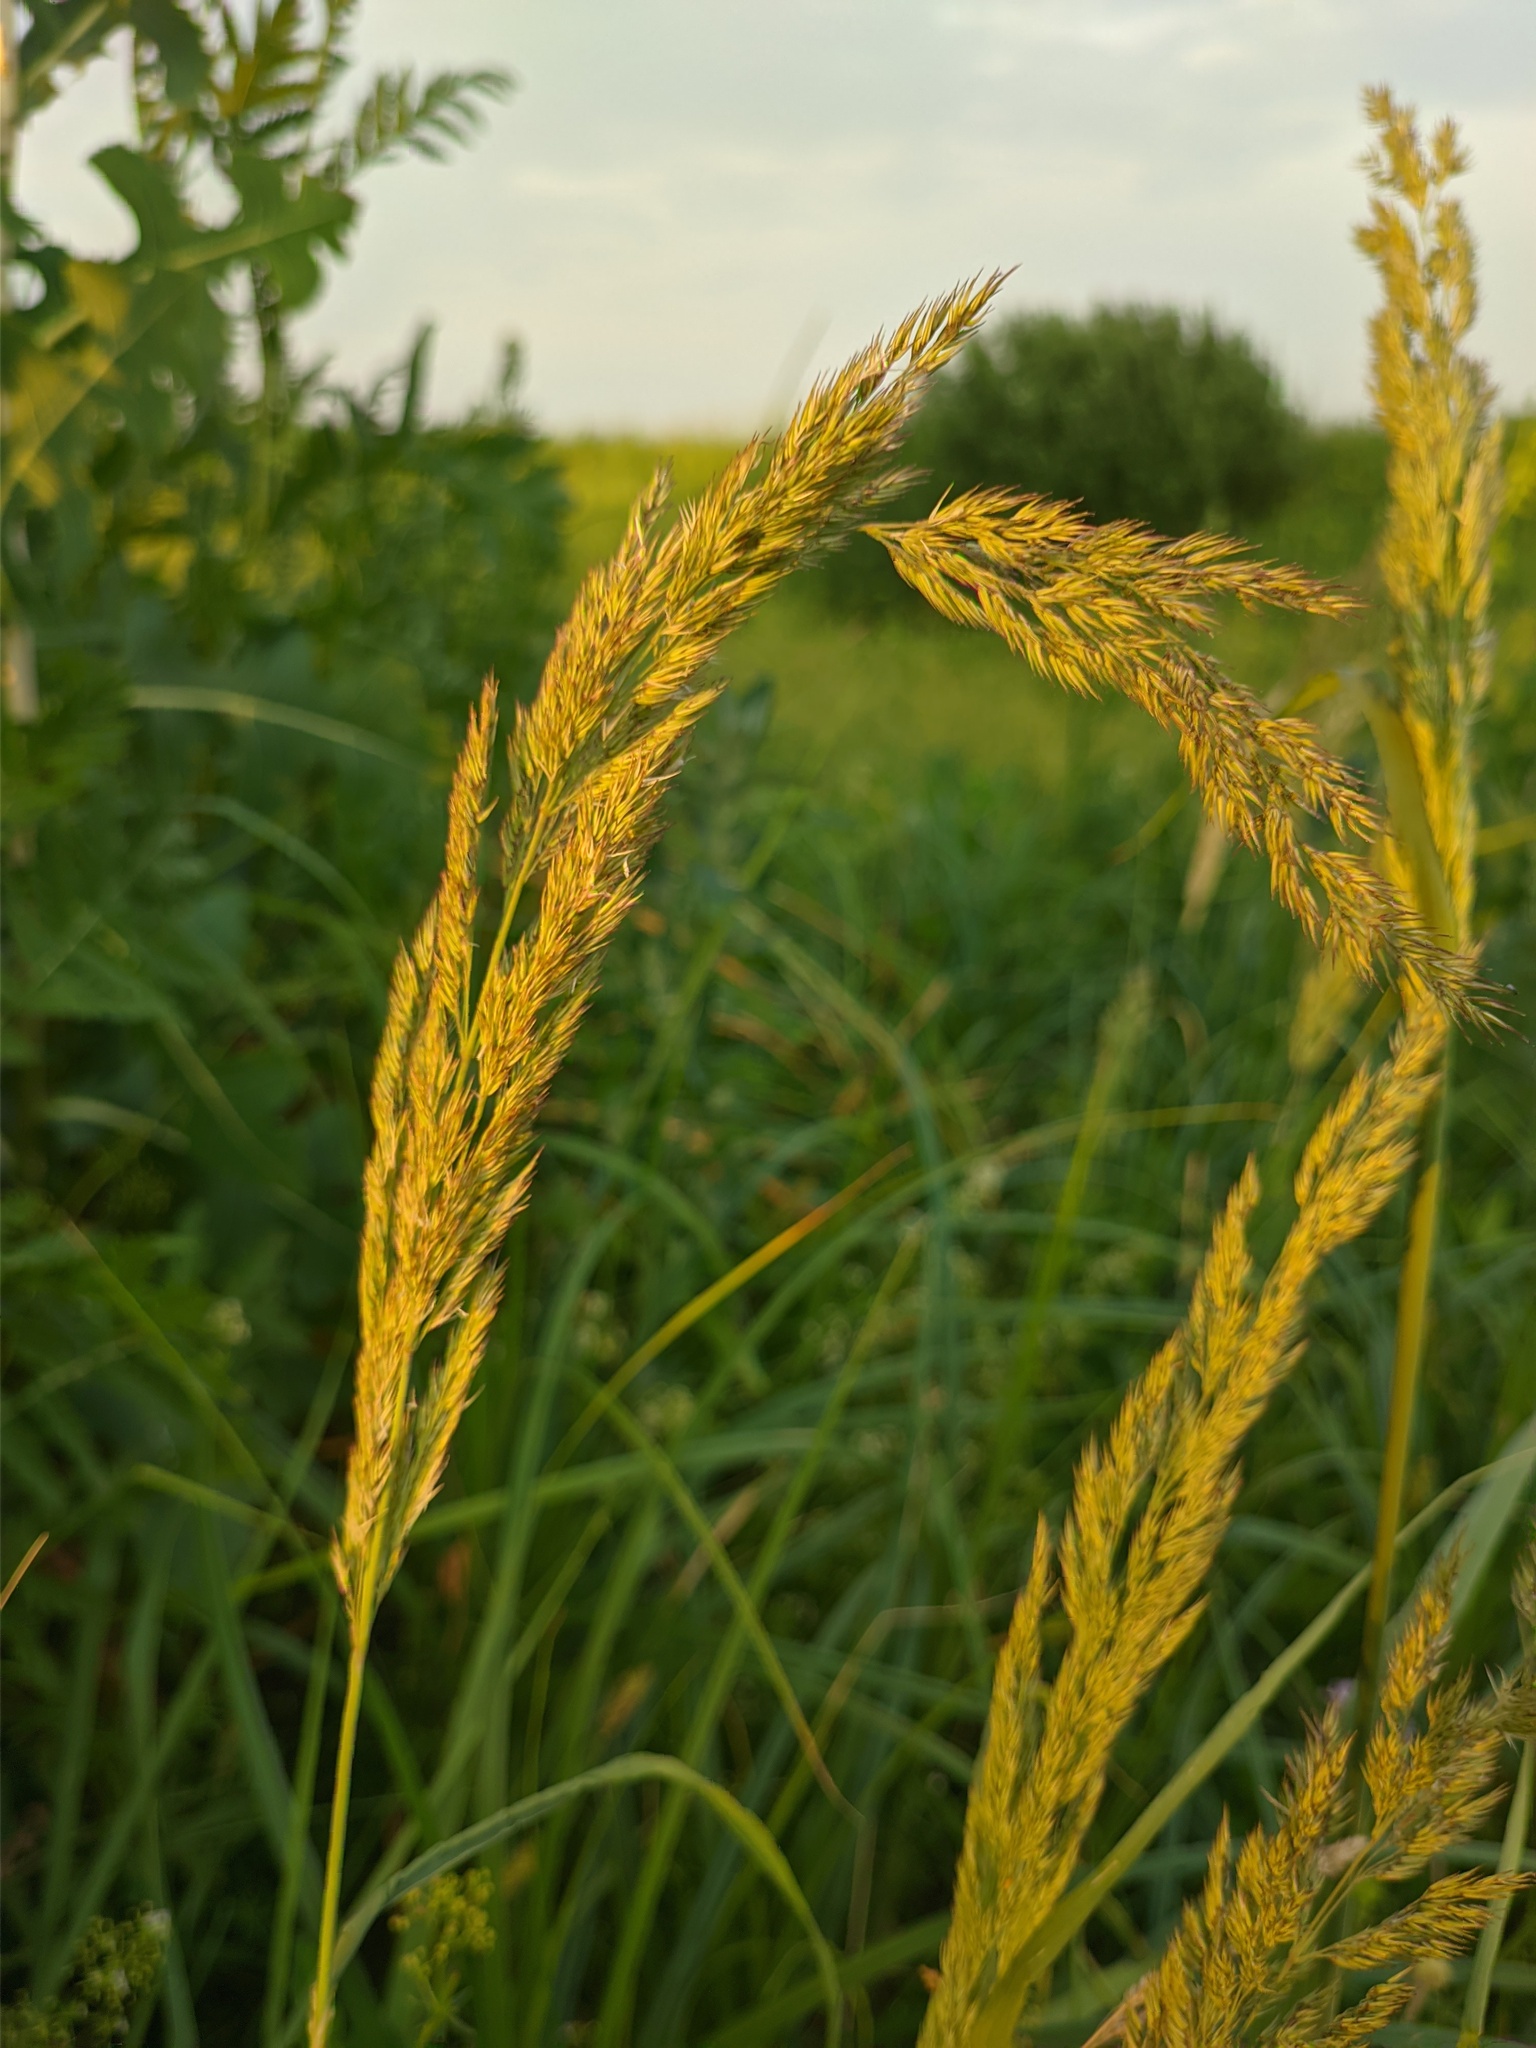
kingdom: Plantae
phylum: Tracheophyta
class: Liliopsida
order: Poales
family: Poaceae
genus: Calamagrostis
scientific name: Calamagrostis epigejos
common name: Wood small-reed
